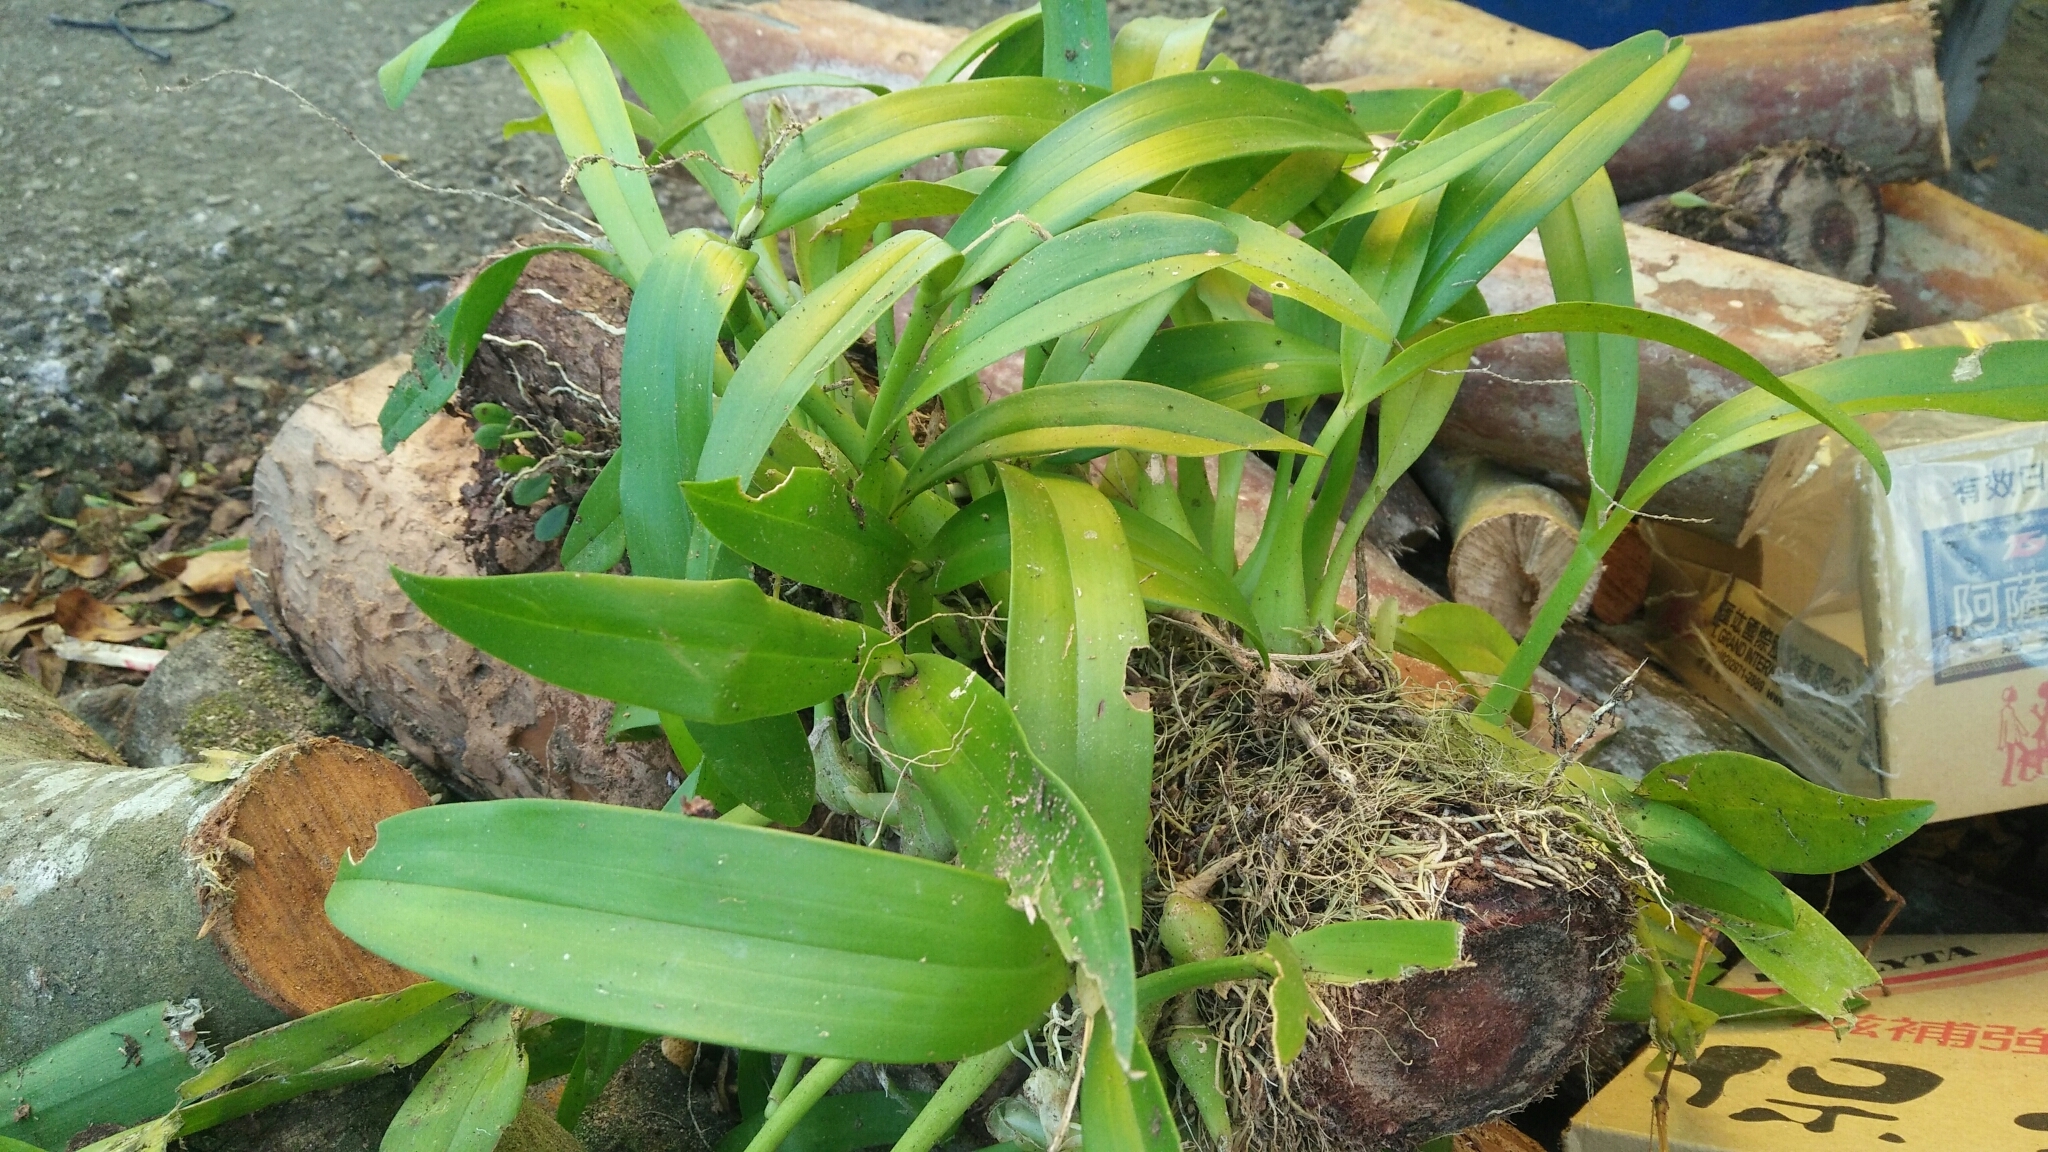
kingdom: Plantae
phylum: Tracheophyta
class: Liliopsida
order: Asparagales
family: Orchidaceae
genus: Liparis
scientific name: Liparis condylobulbon
